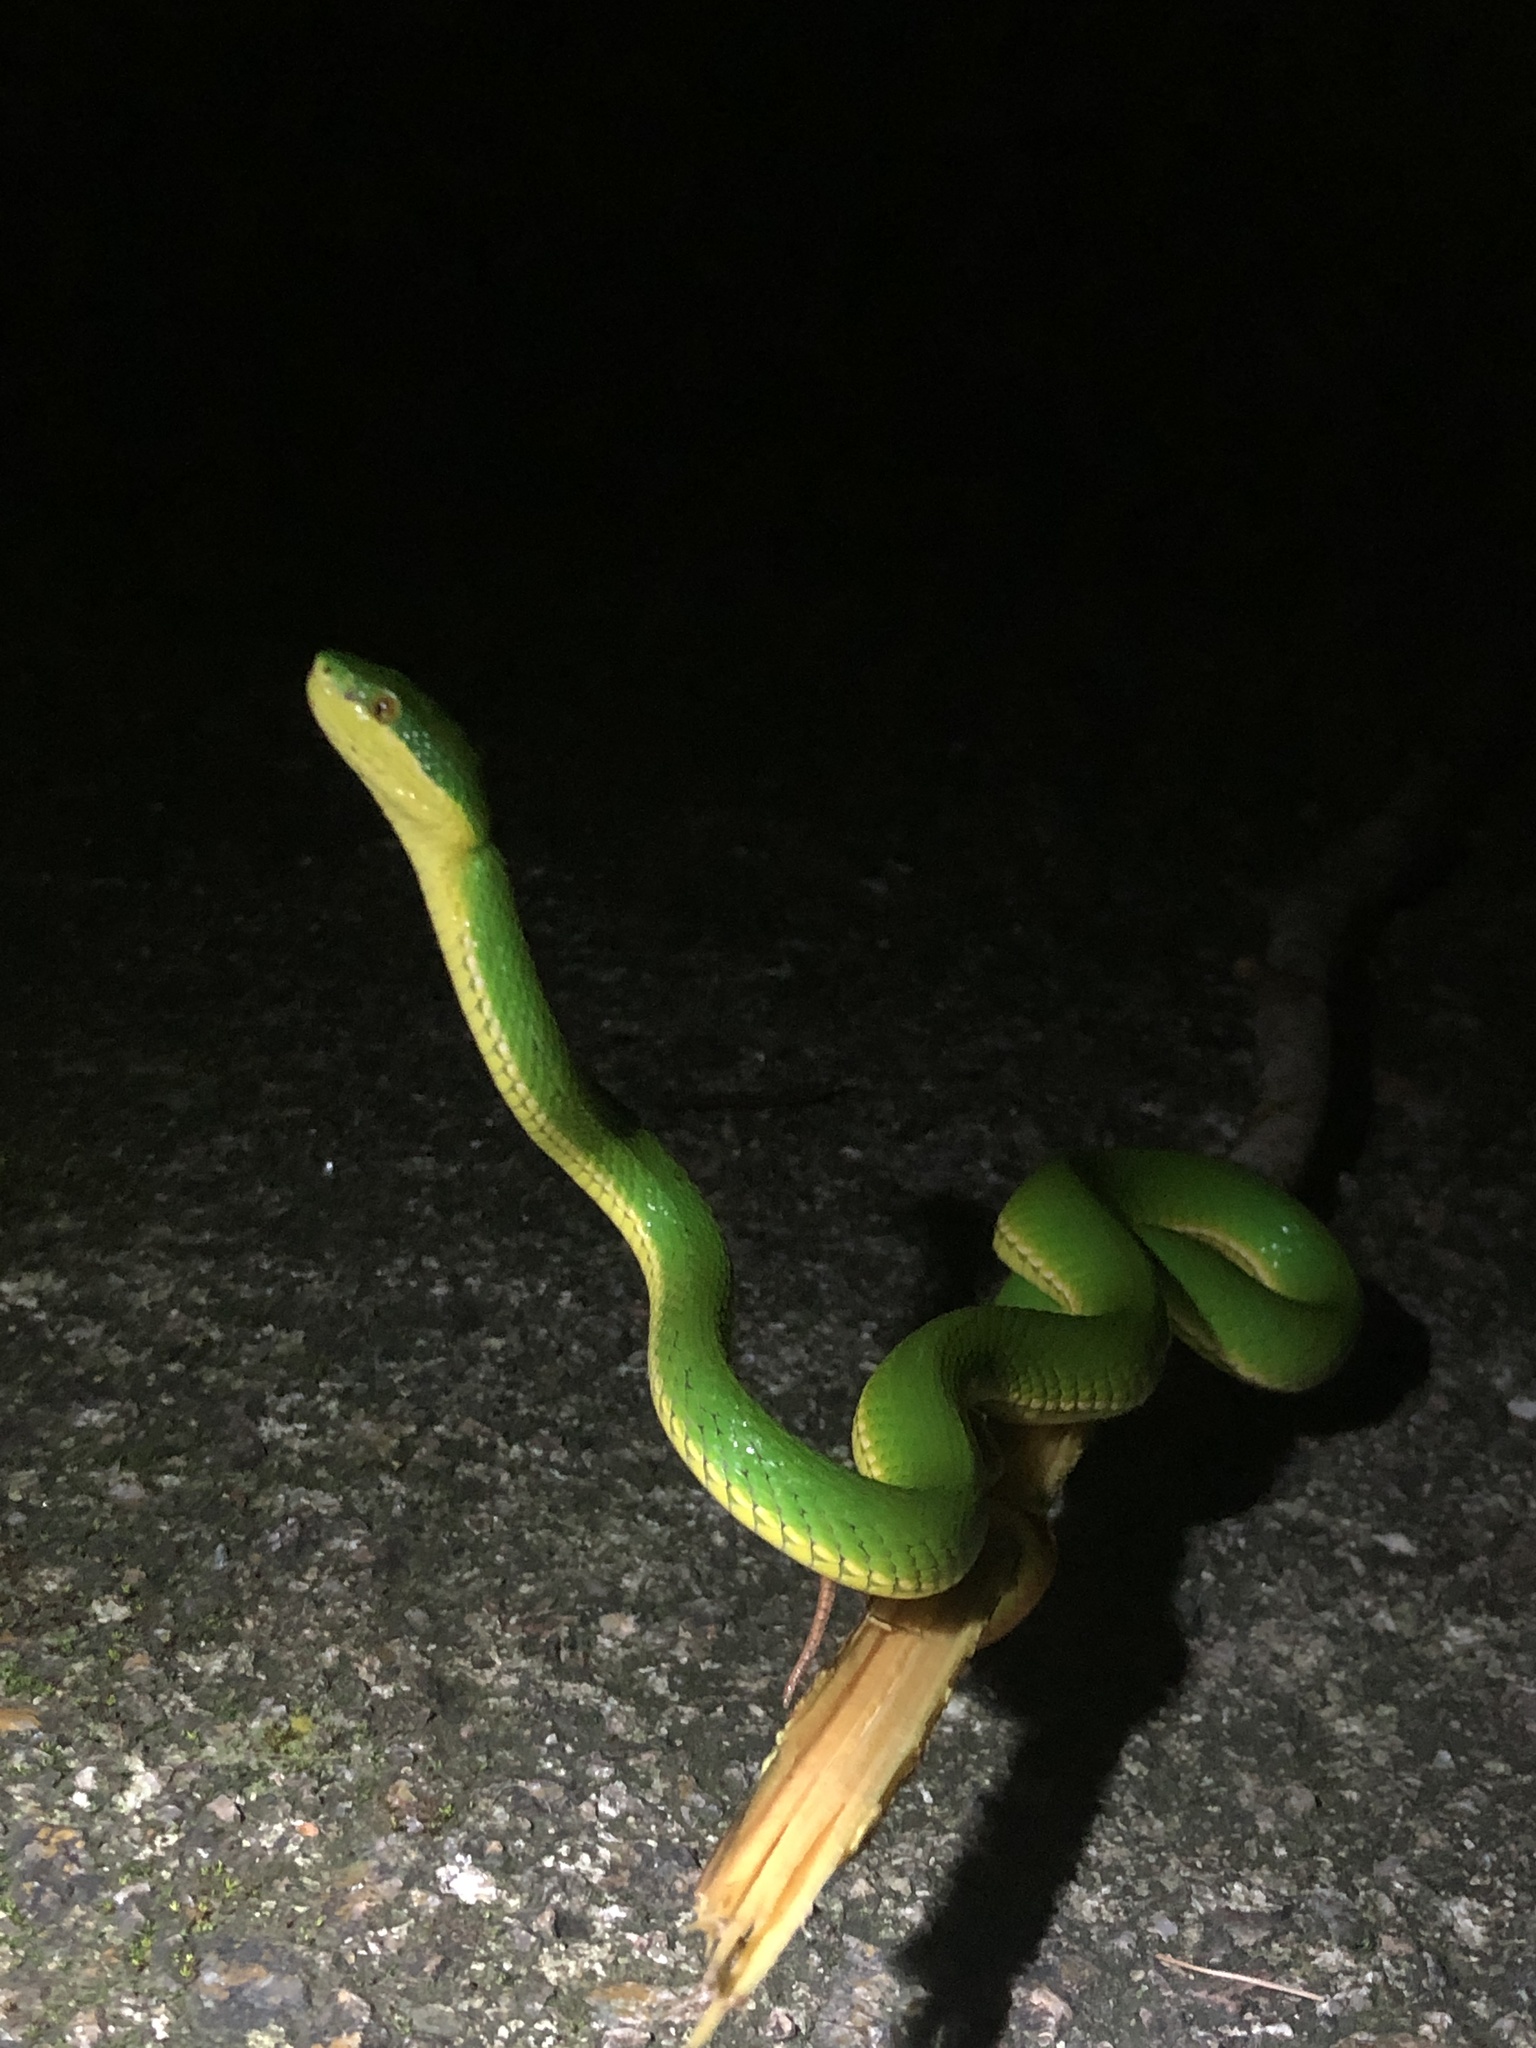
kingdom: Animalia
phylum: Chordata
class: Squamata
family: Viperidae
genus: Trimeresurus
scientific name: Trimeresurus albolabris
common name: White-lipped pitviper
